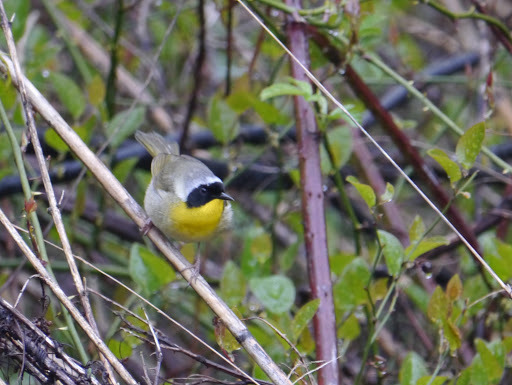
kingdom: Animalia
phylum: Chordata
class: Aves
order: Passeriformes
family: Parulidae
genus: Geothlypis
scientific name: Geothlypis trichas
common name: Common yellowthroat
